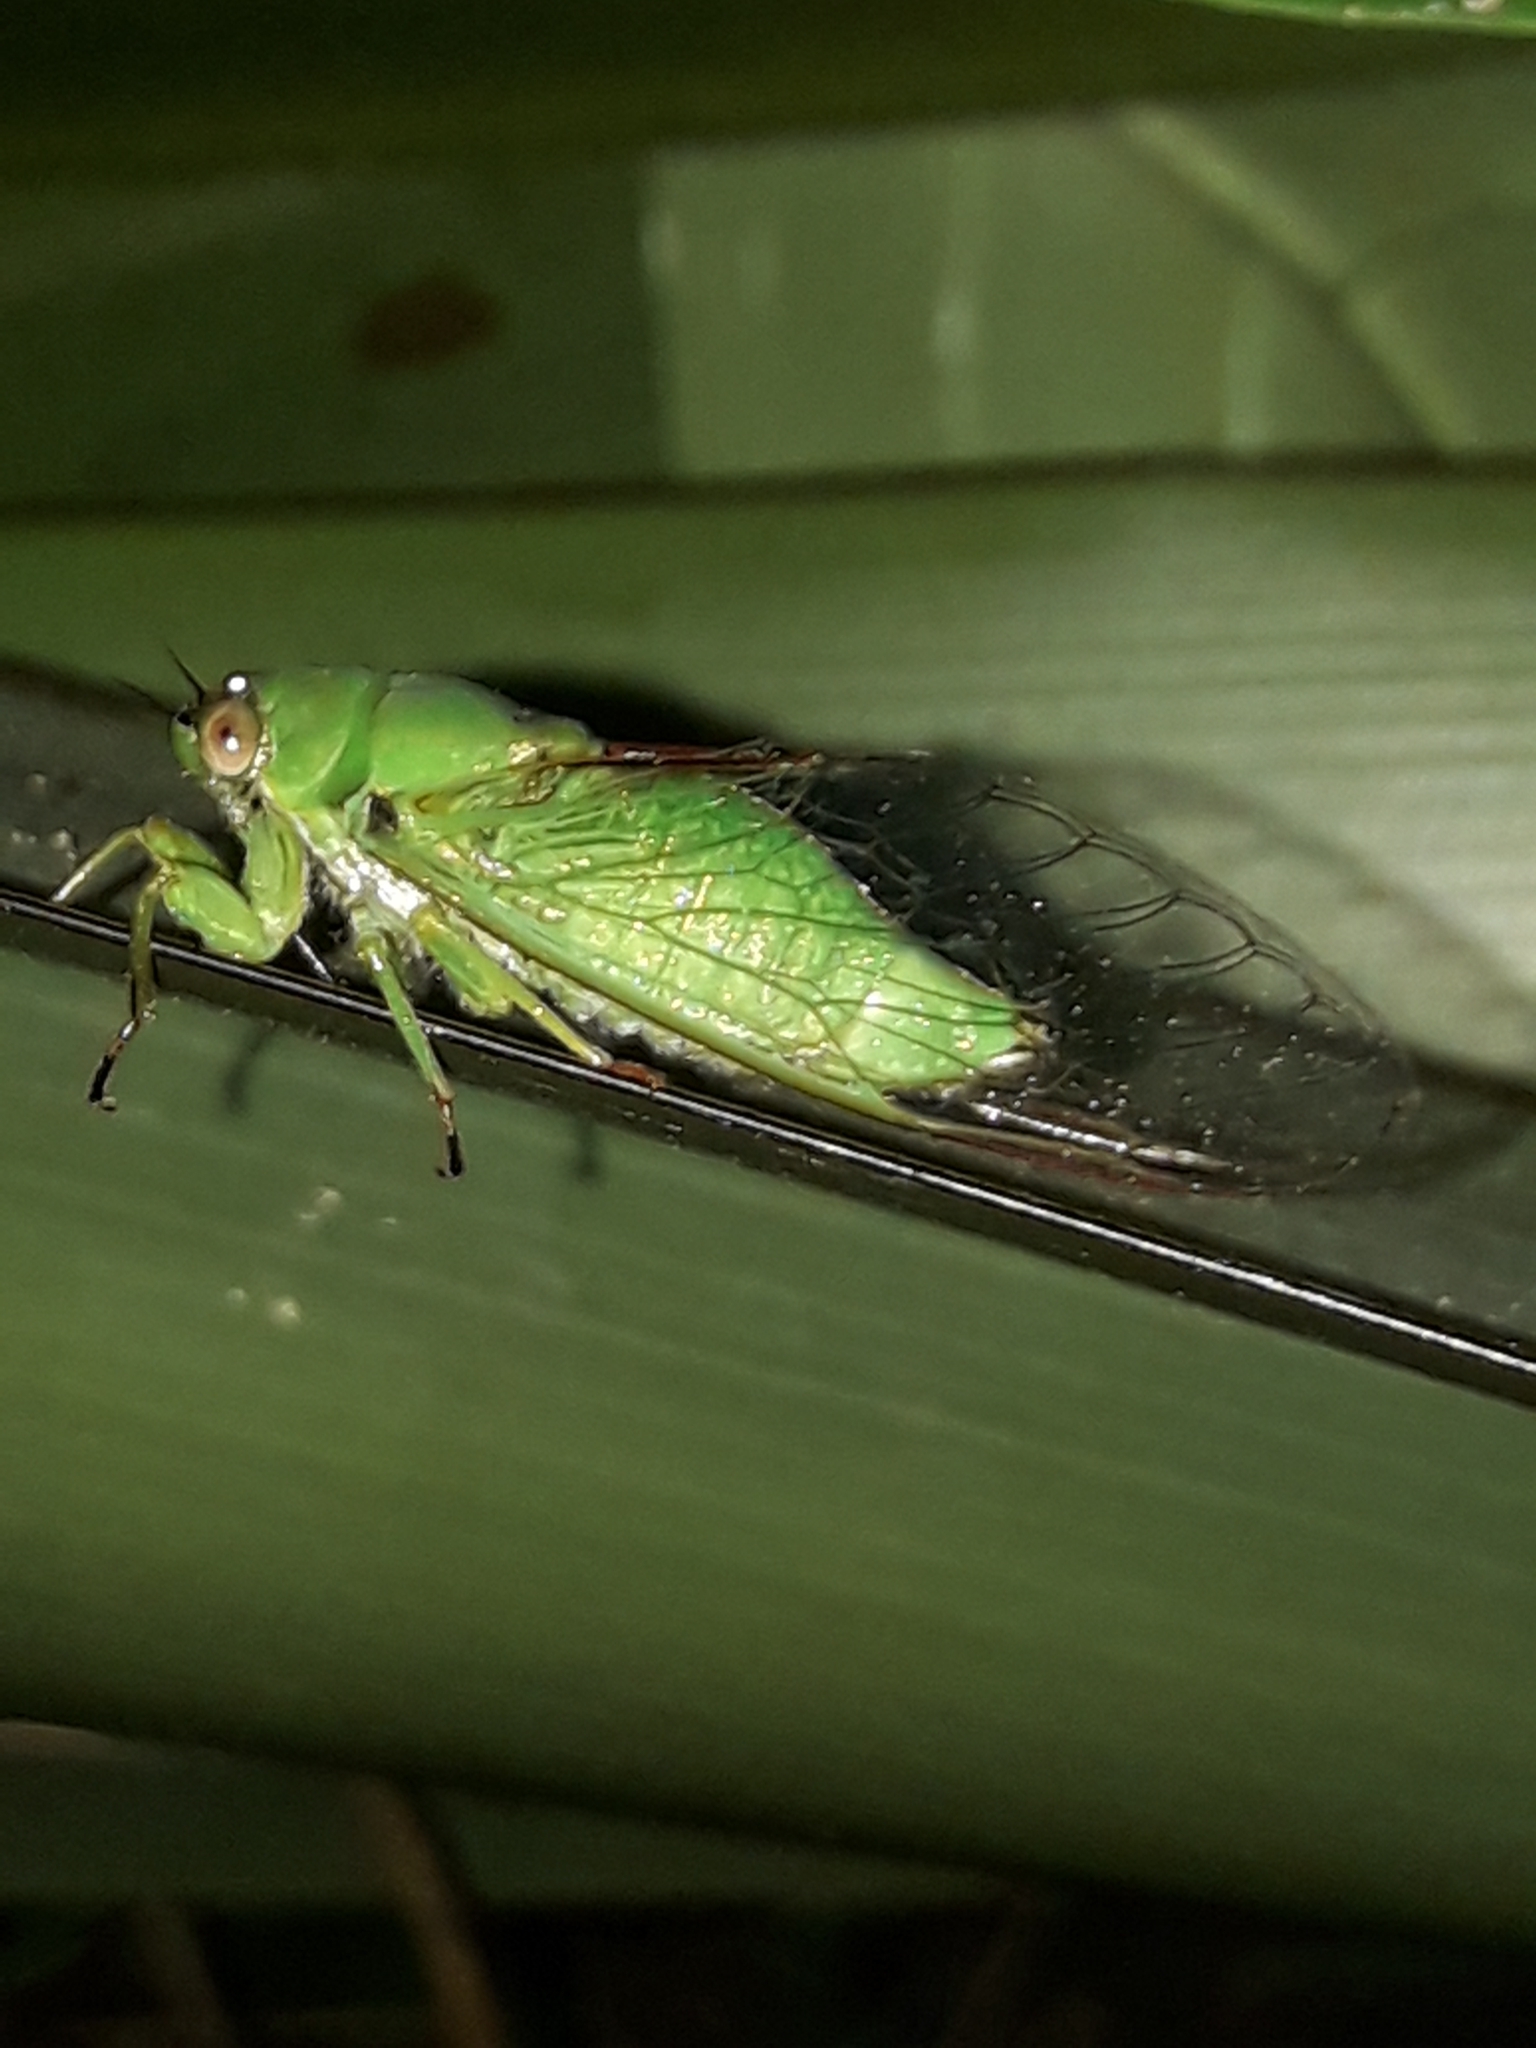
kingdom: Animalia
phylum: Arthropoda
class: Insecta
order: Hemiptera
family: Cicadidae
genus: Kikihia
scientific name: Kikihia ochrina
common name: April green cicada
